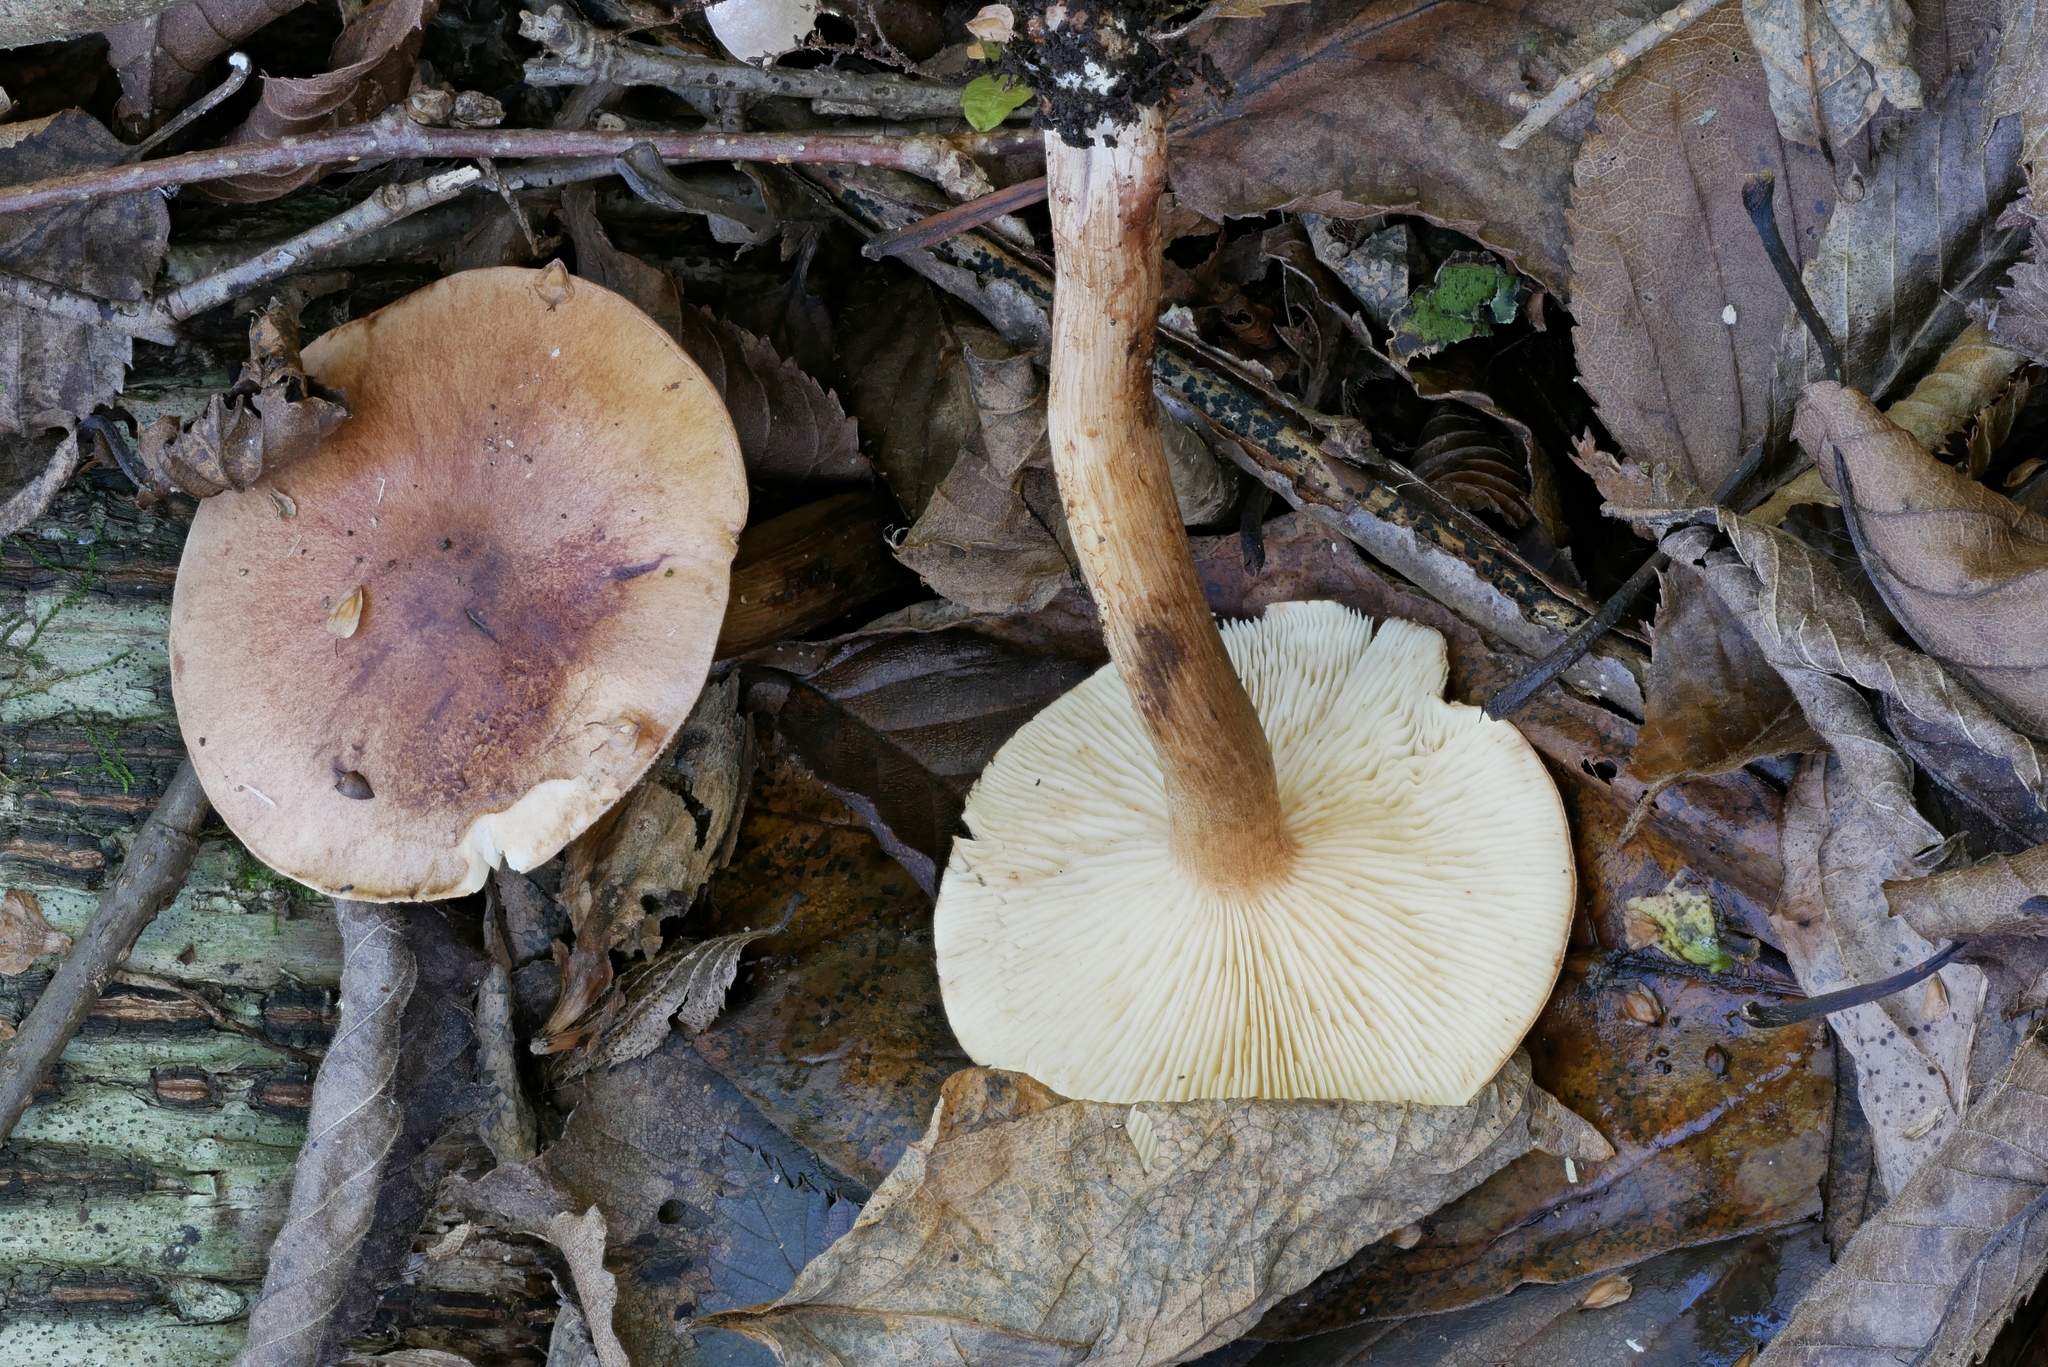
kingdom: Fungi
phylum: Basidiomycota
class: Agaricomycetes
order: Agaricales
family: Tricholomataceae
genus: Tricholoma
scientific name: Tricholoma fulvum
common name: Birch knight
